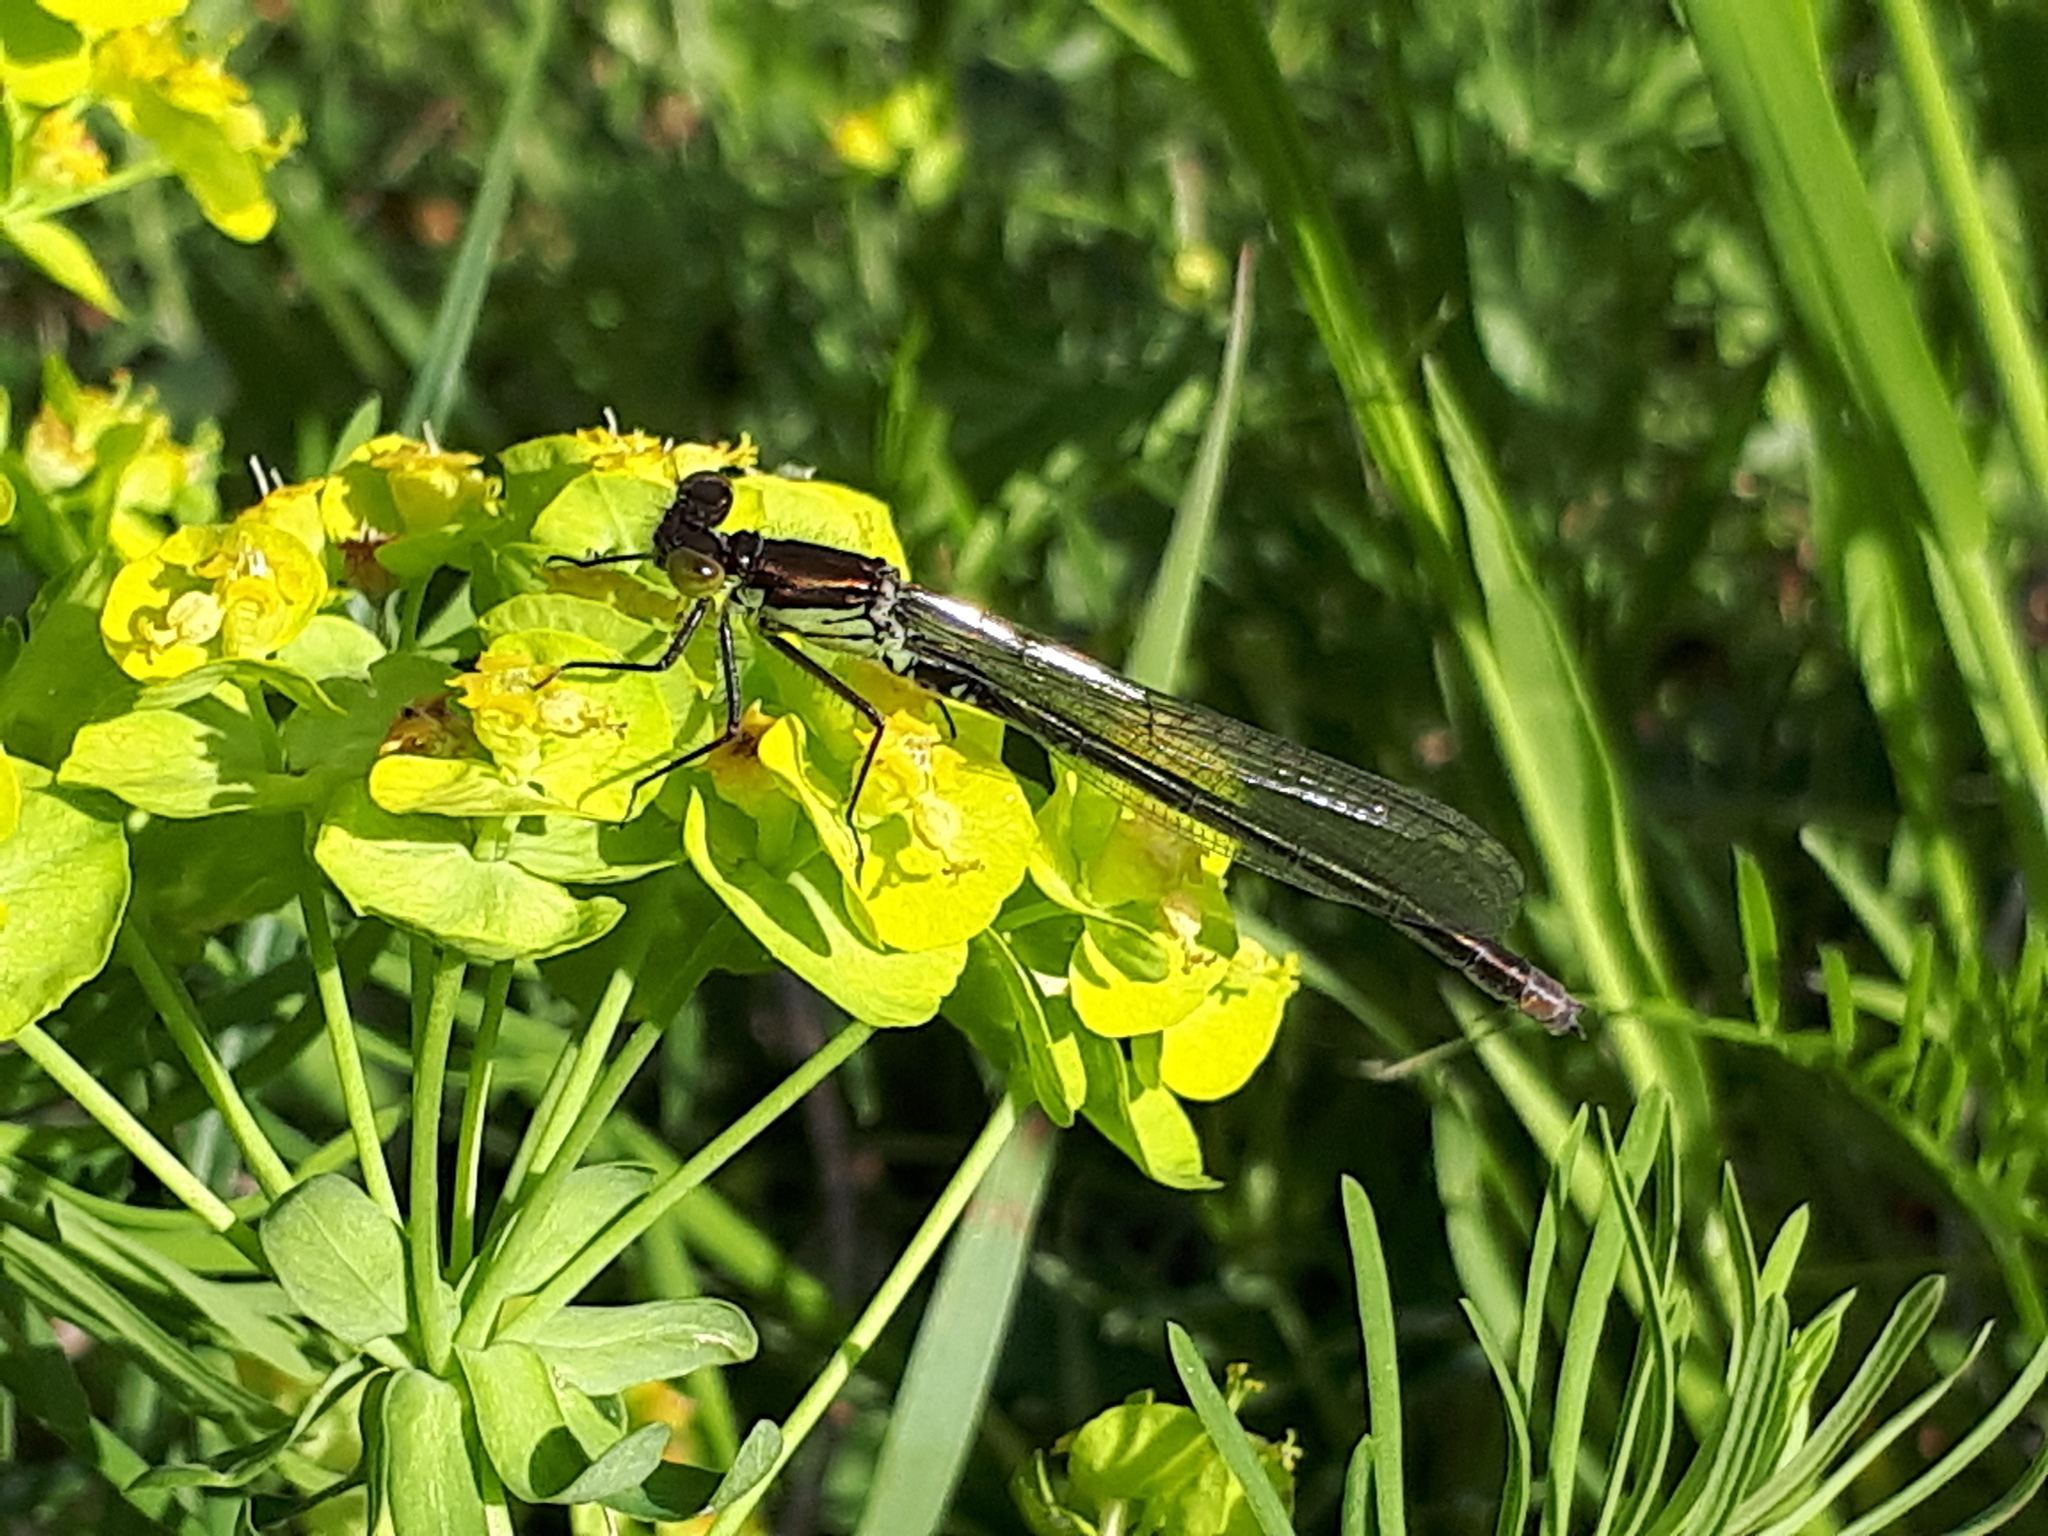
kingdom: Animalia
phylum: Arthropoda
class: Insecta
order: Odonata
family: Coenagrionidae
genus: Erythromma
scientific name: Erythromma najas
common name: Red-eyed damselfly
